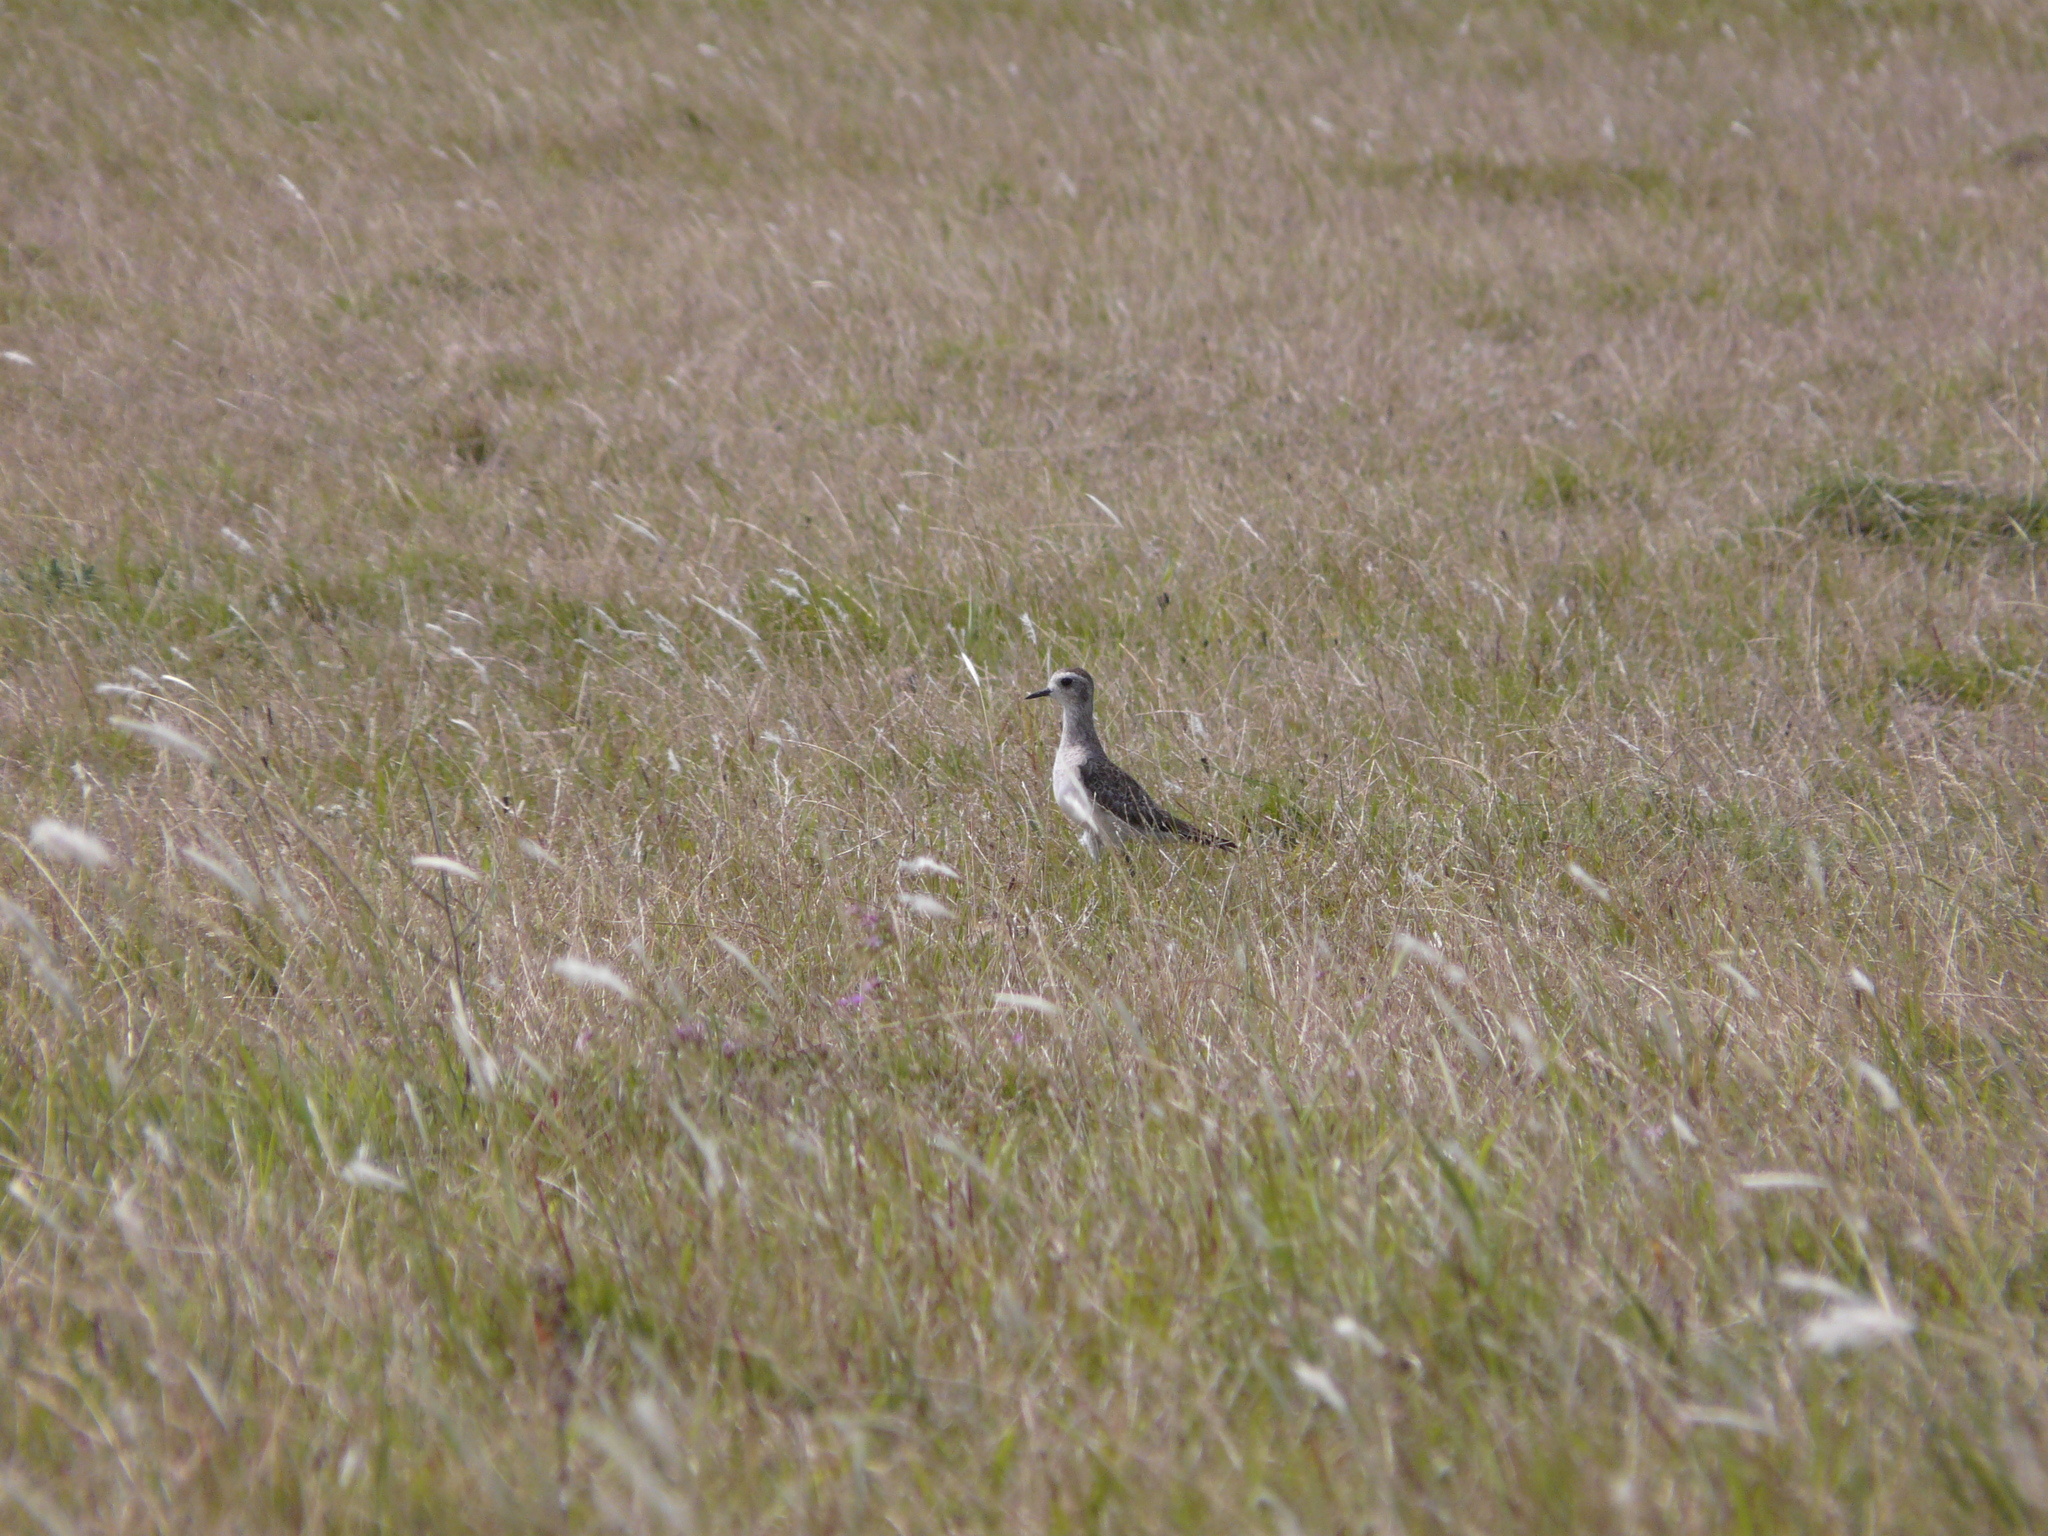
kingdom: Animalia
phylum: Chordata
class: Aves
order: Charadriiformes
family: Charadriidae
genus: Pluvialis
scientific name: Pluvialis dominica
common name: American golden plover
